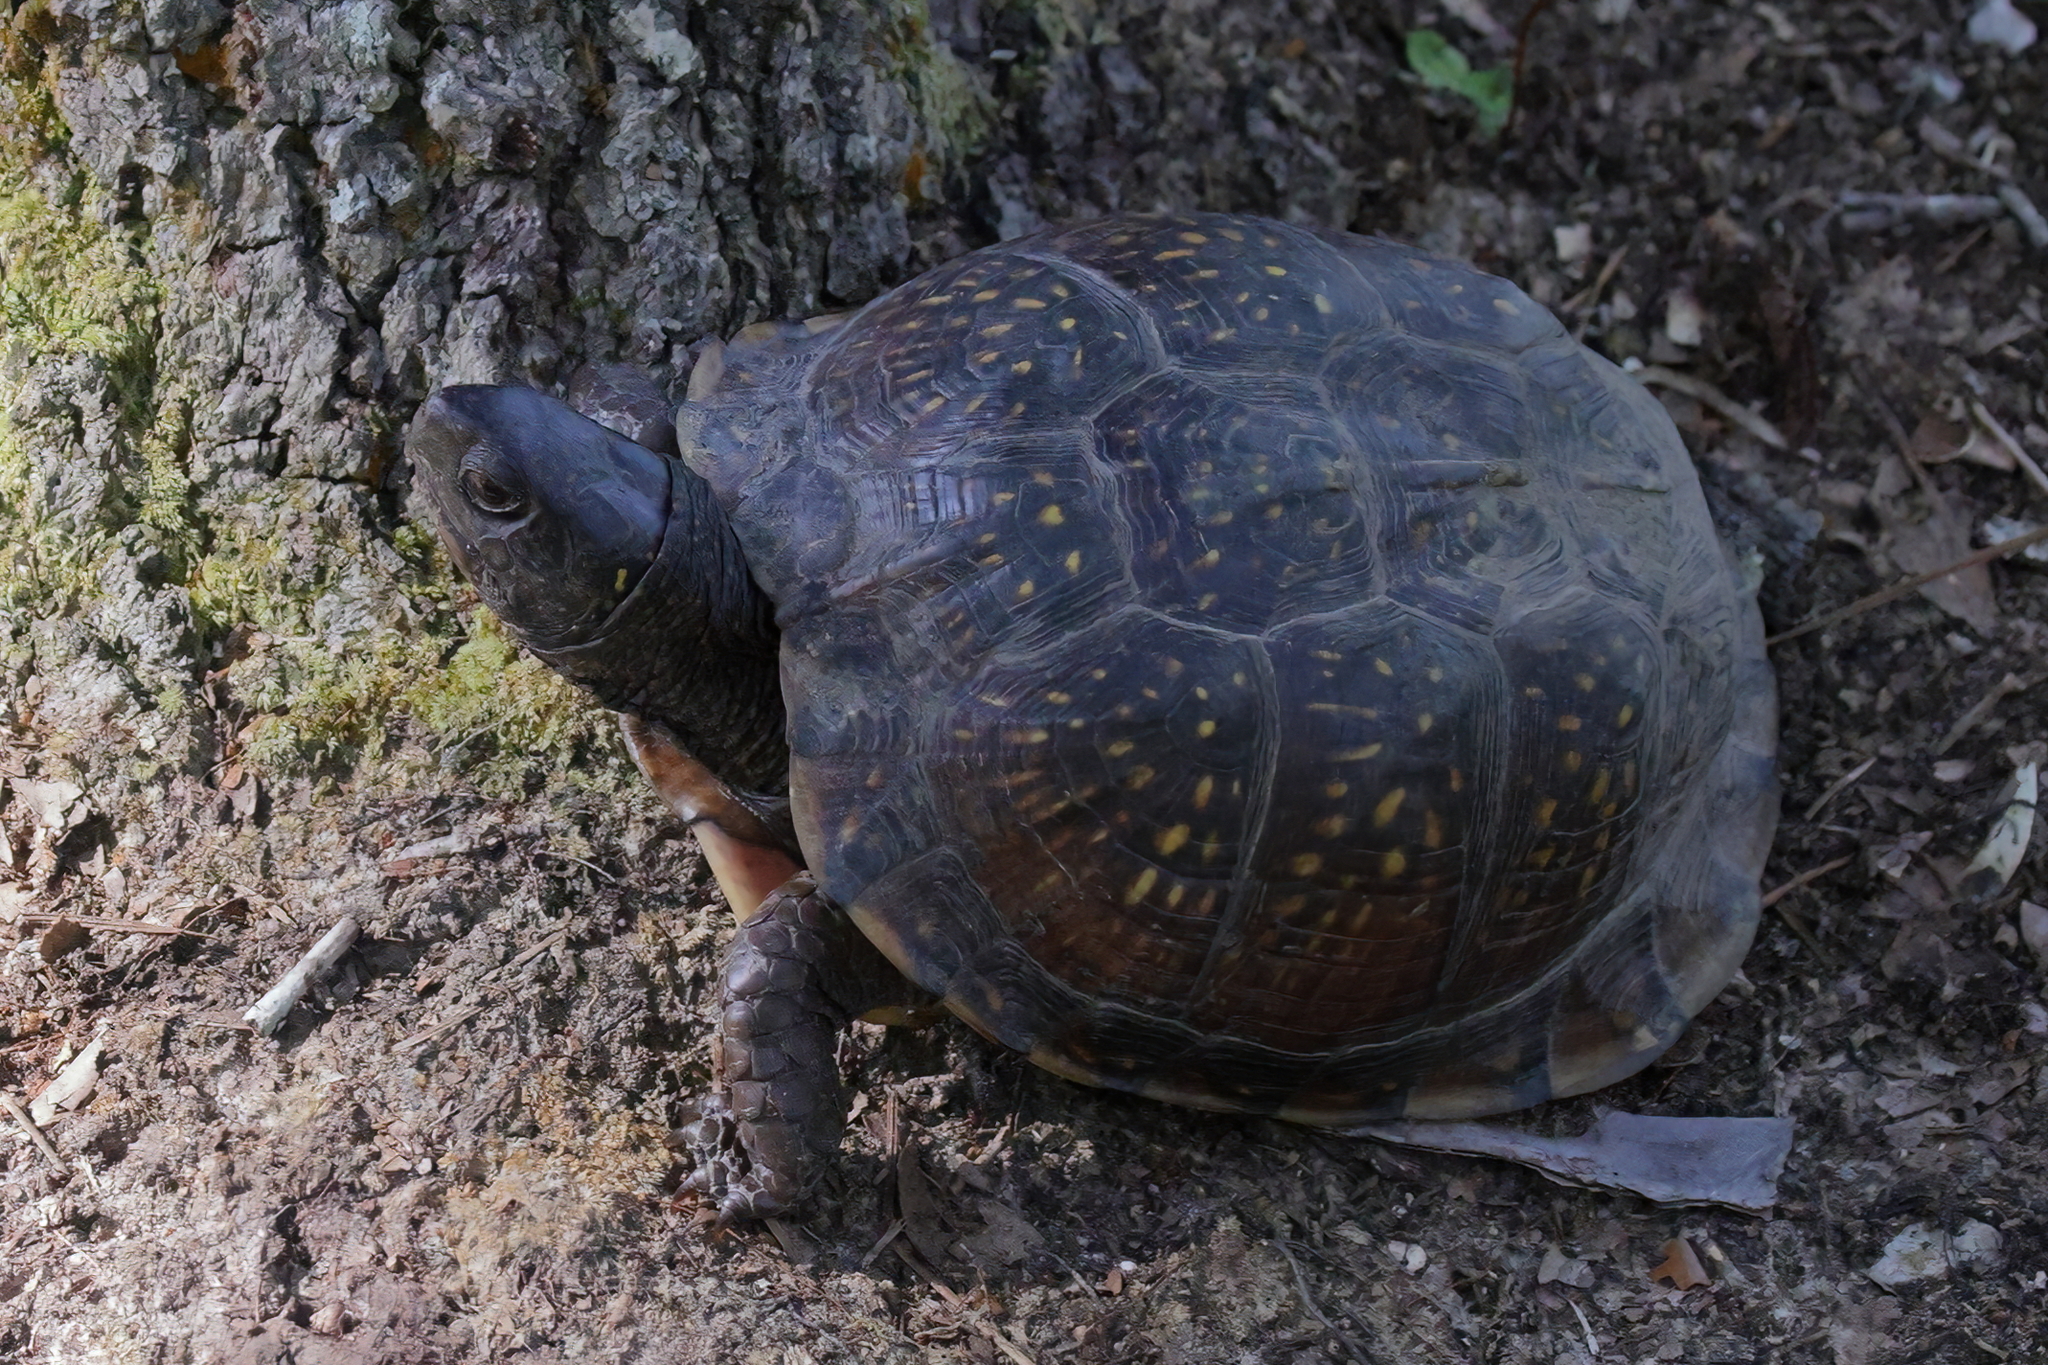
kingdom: Animalia
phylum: Chordata
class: Testudines
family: Emydidae
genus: Terrapene
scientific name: Terrapene carolina
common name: Common box turtle
